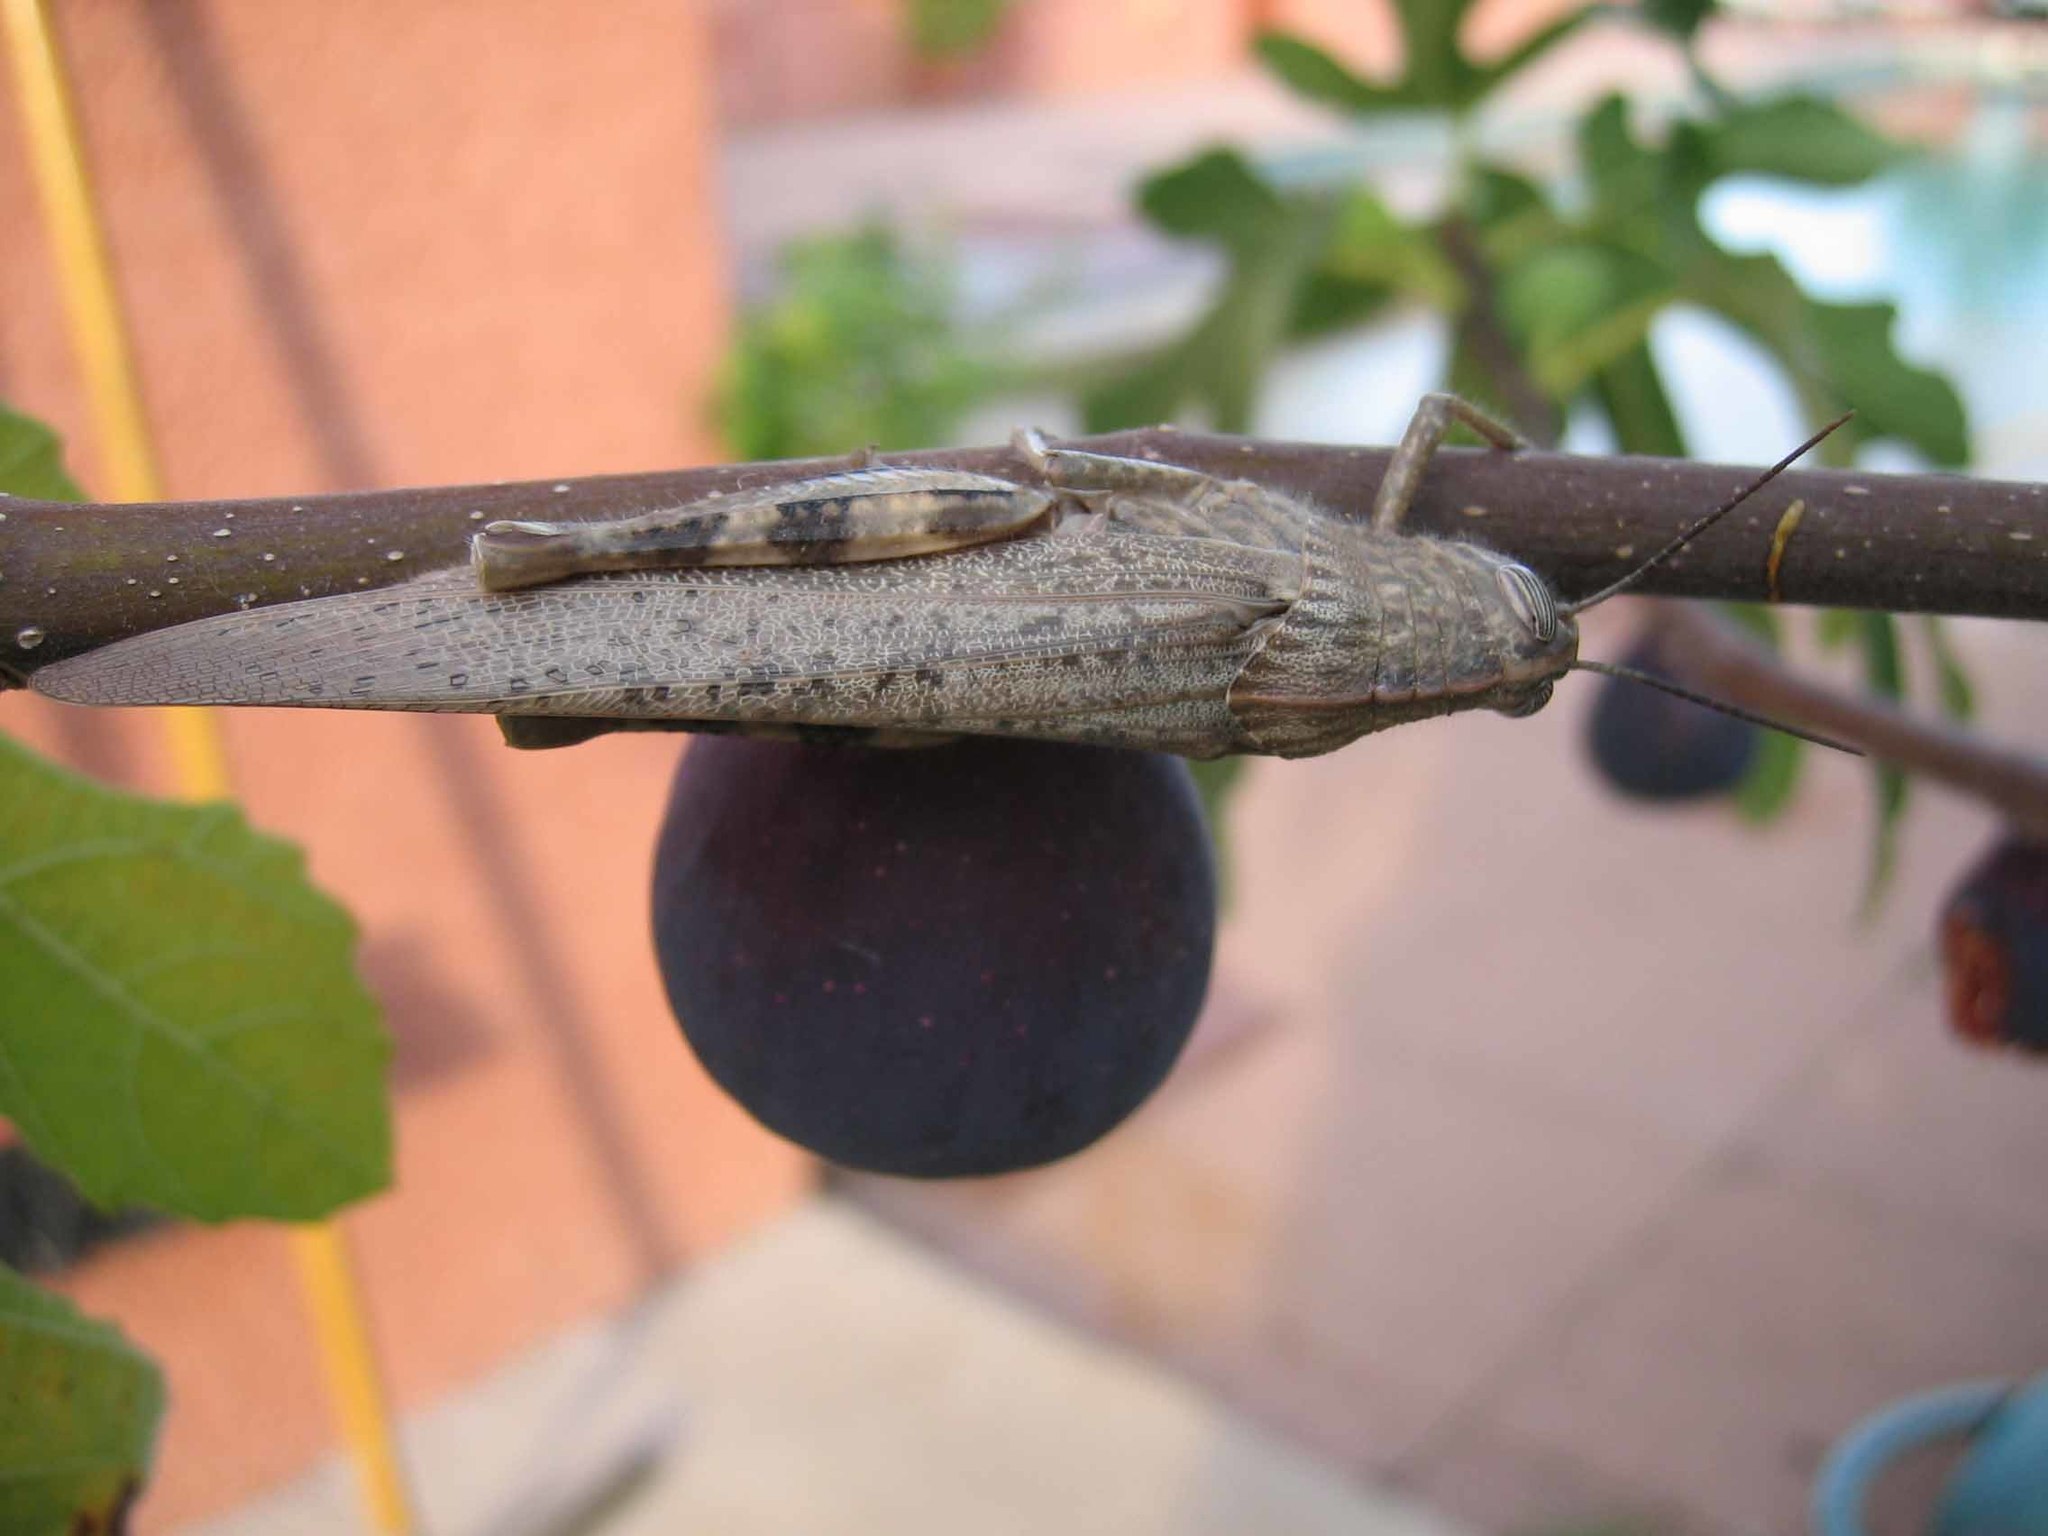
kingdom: Animalia
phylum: Arthropoda
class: Insecta
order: Orthoptera
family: Acrididae
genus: Anacridium
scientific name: Anacridium aegyptium
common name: Egyptian grasshopper
